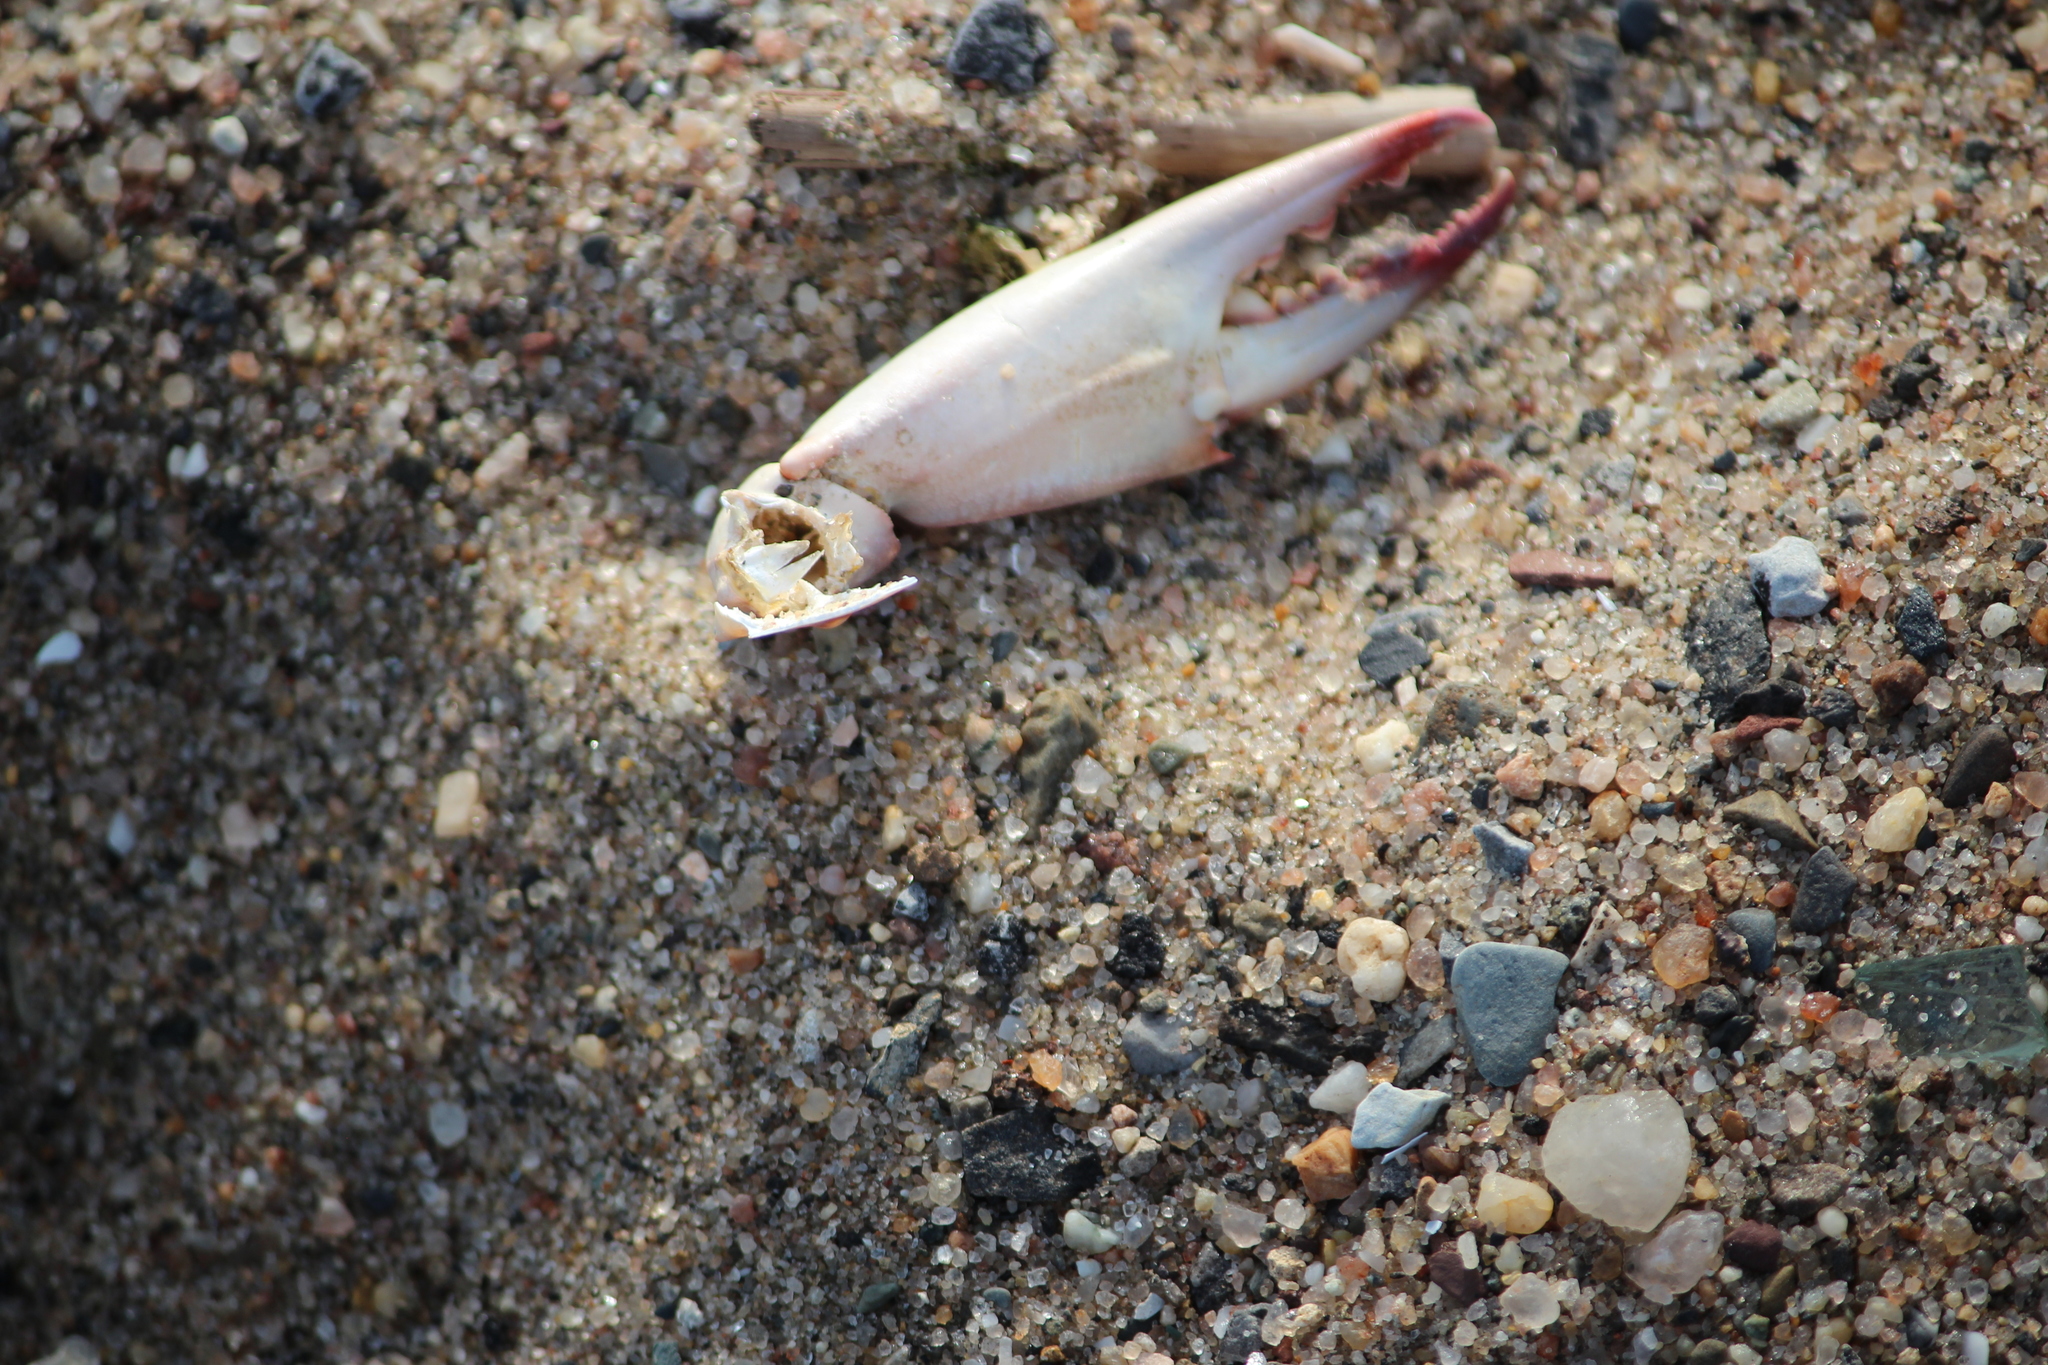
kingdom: Animalia
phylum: Arthropoda
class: Malacostraca
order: Decapoda
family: Portunidae
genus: Callinectes
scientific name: Callinectes sapidus
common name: Blue crab
